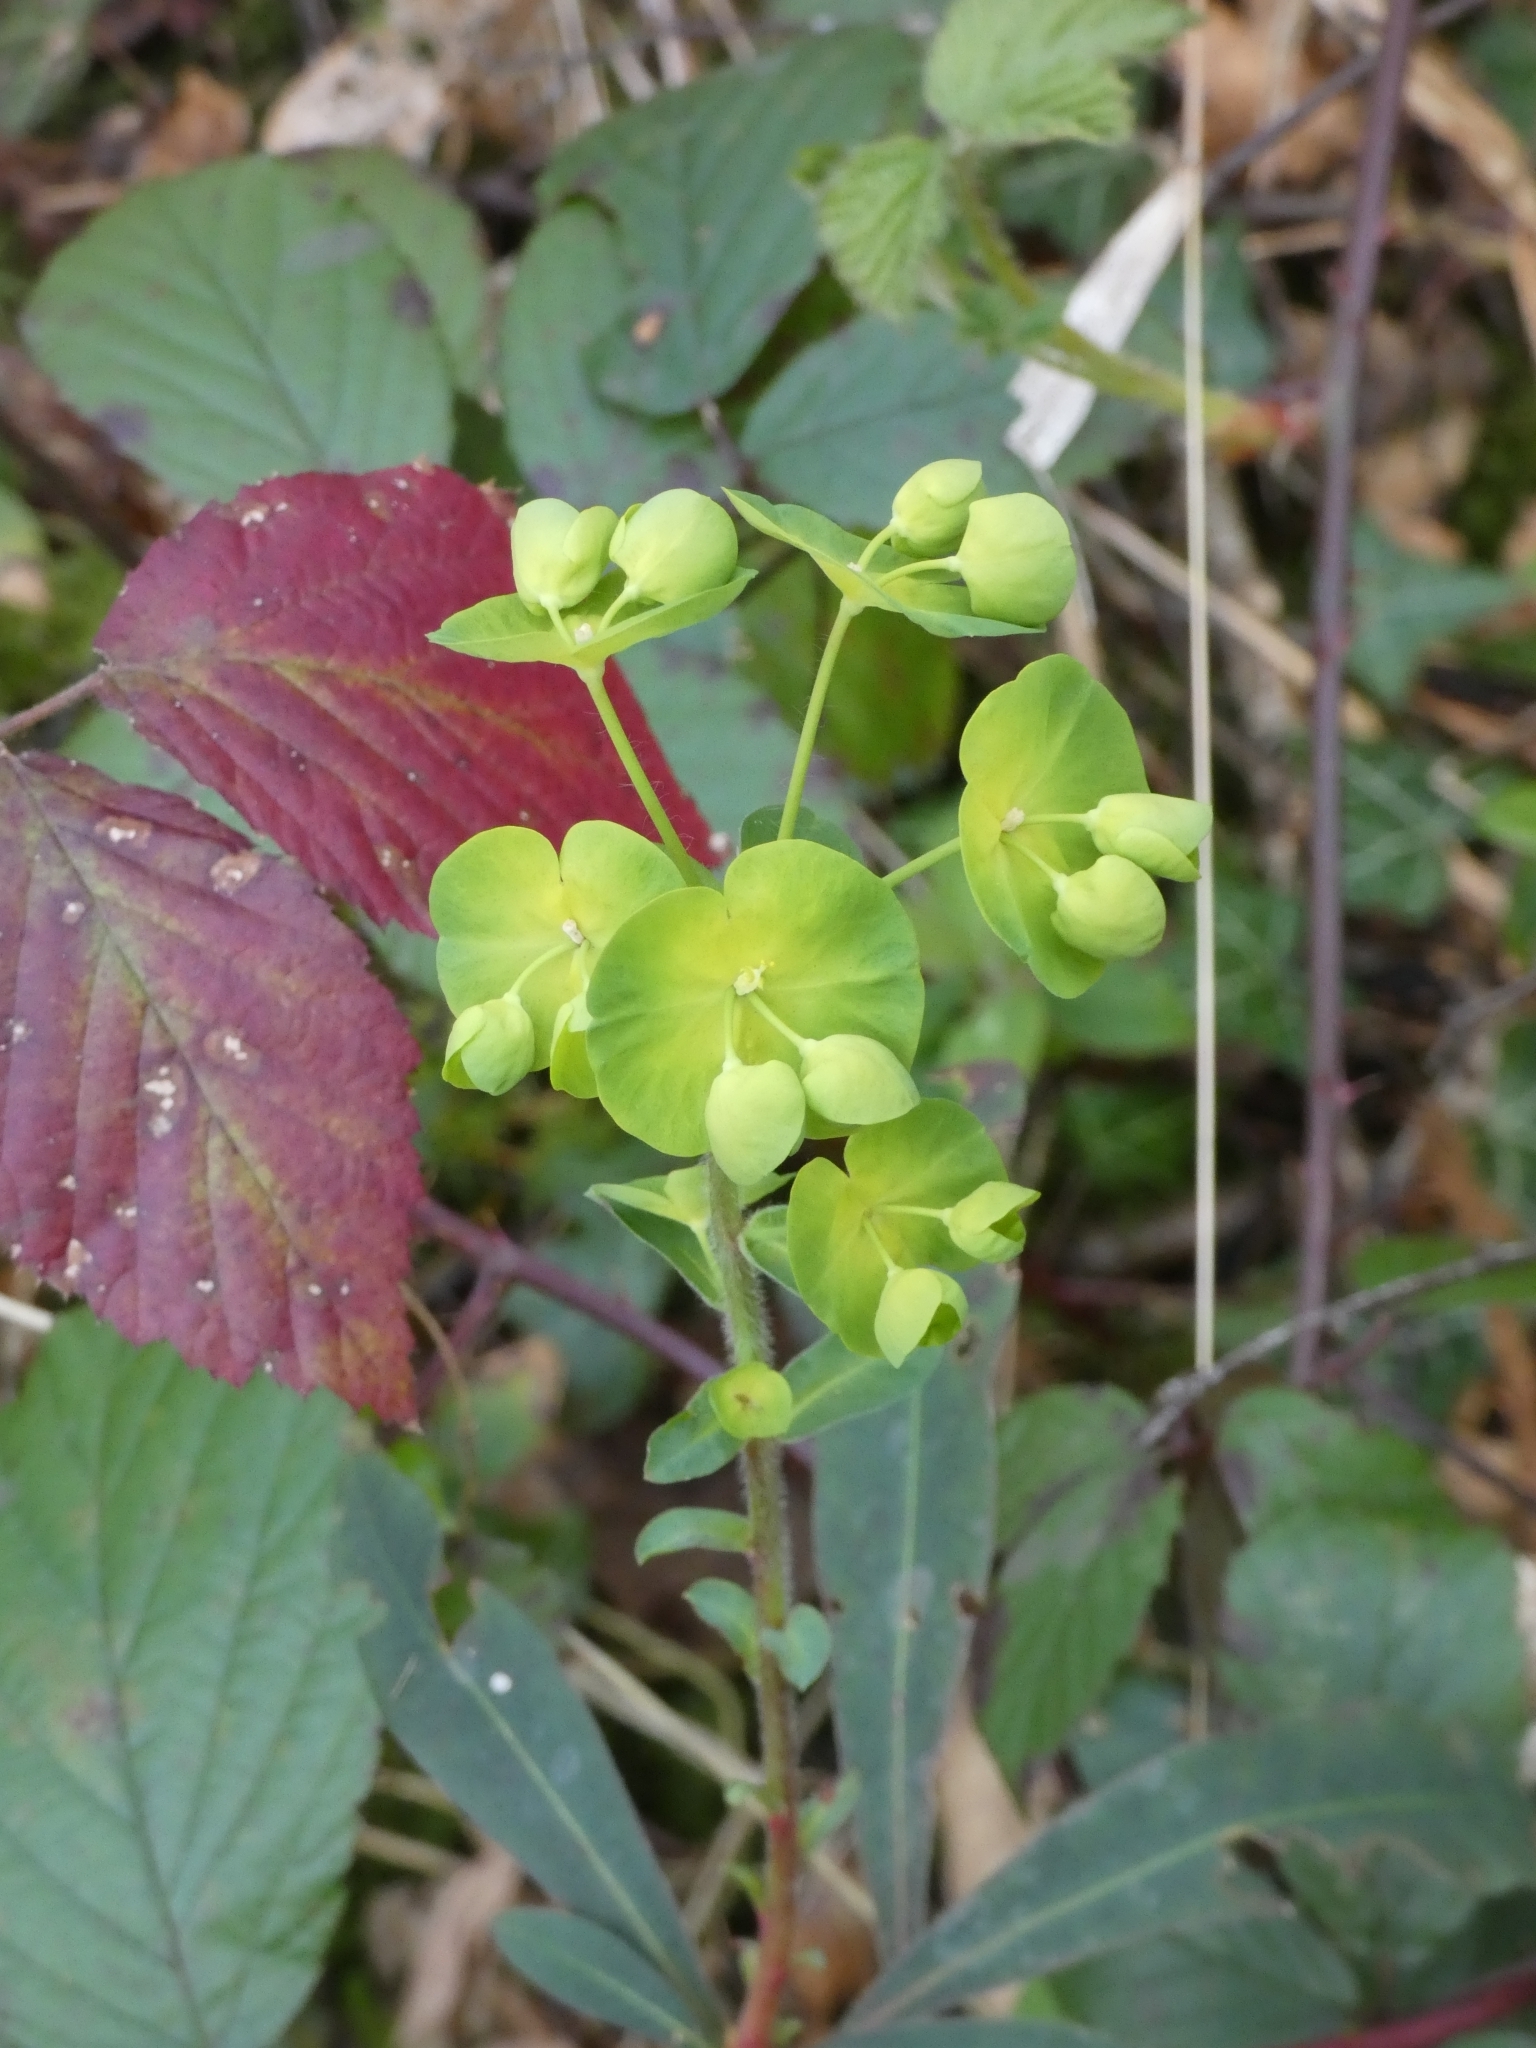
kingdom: Plantae
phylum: Tracheophyta
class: Magnoliopsida
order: Malpighiales
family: Euphorbiaceae
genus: Euphorbia
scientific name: Euphorbia amygdaloides
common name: Wood spurge
